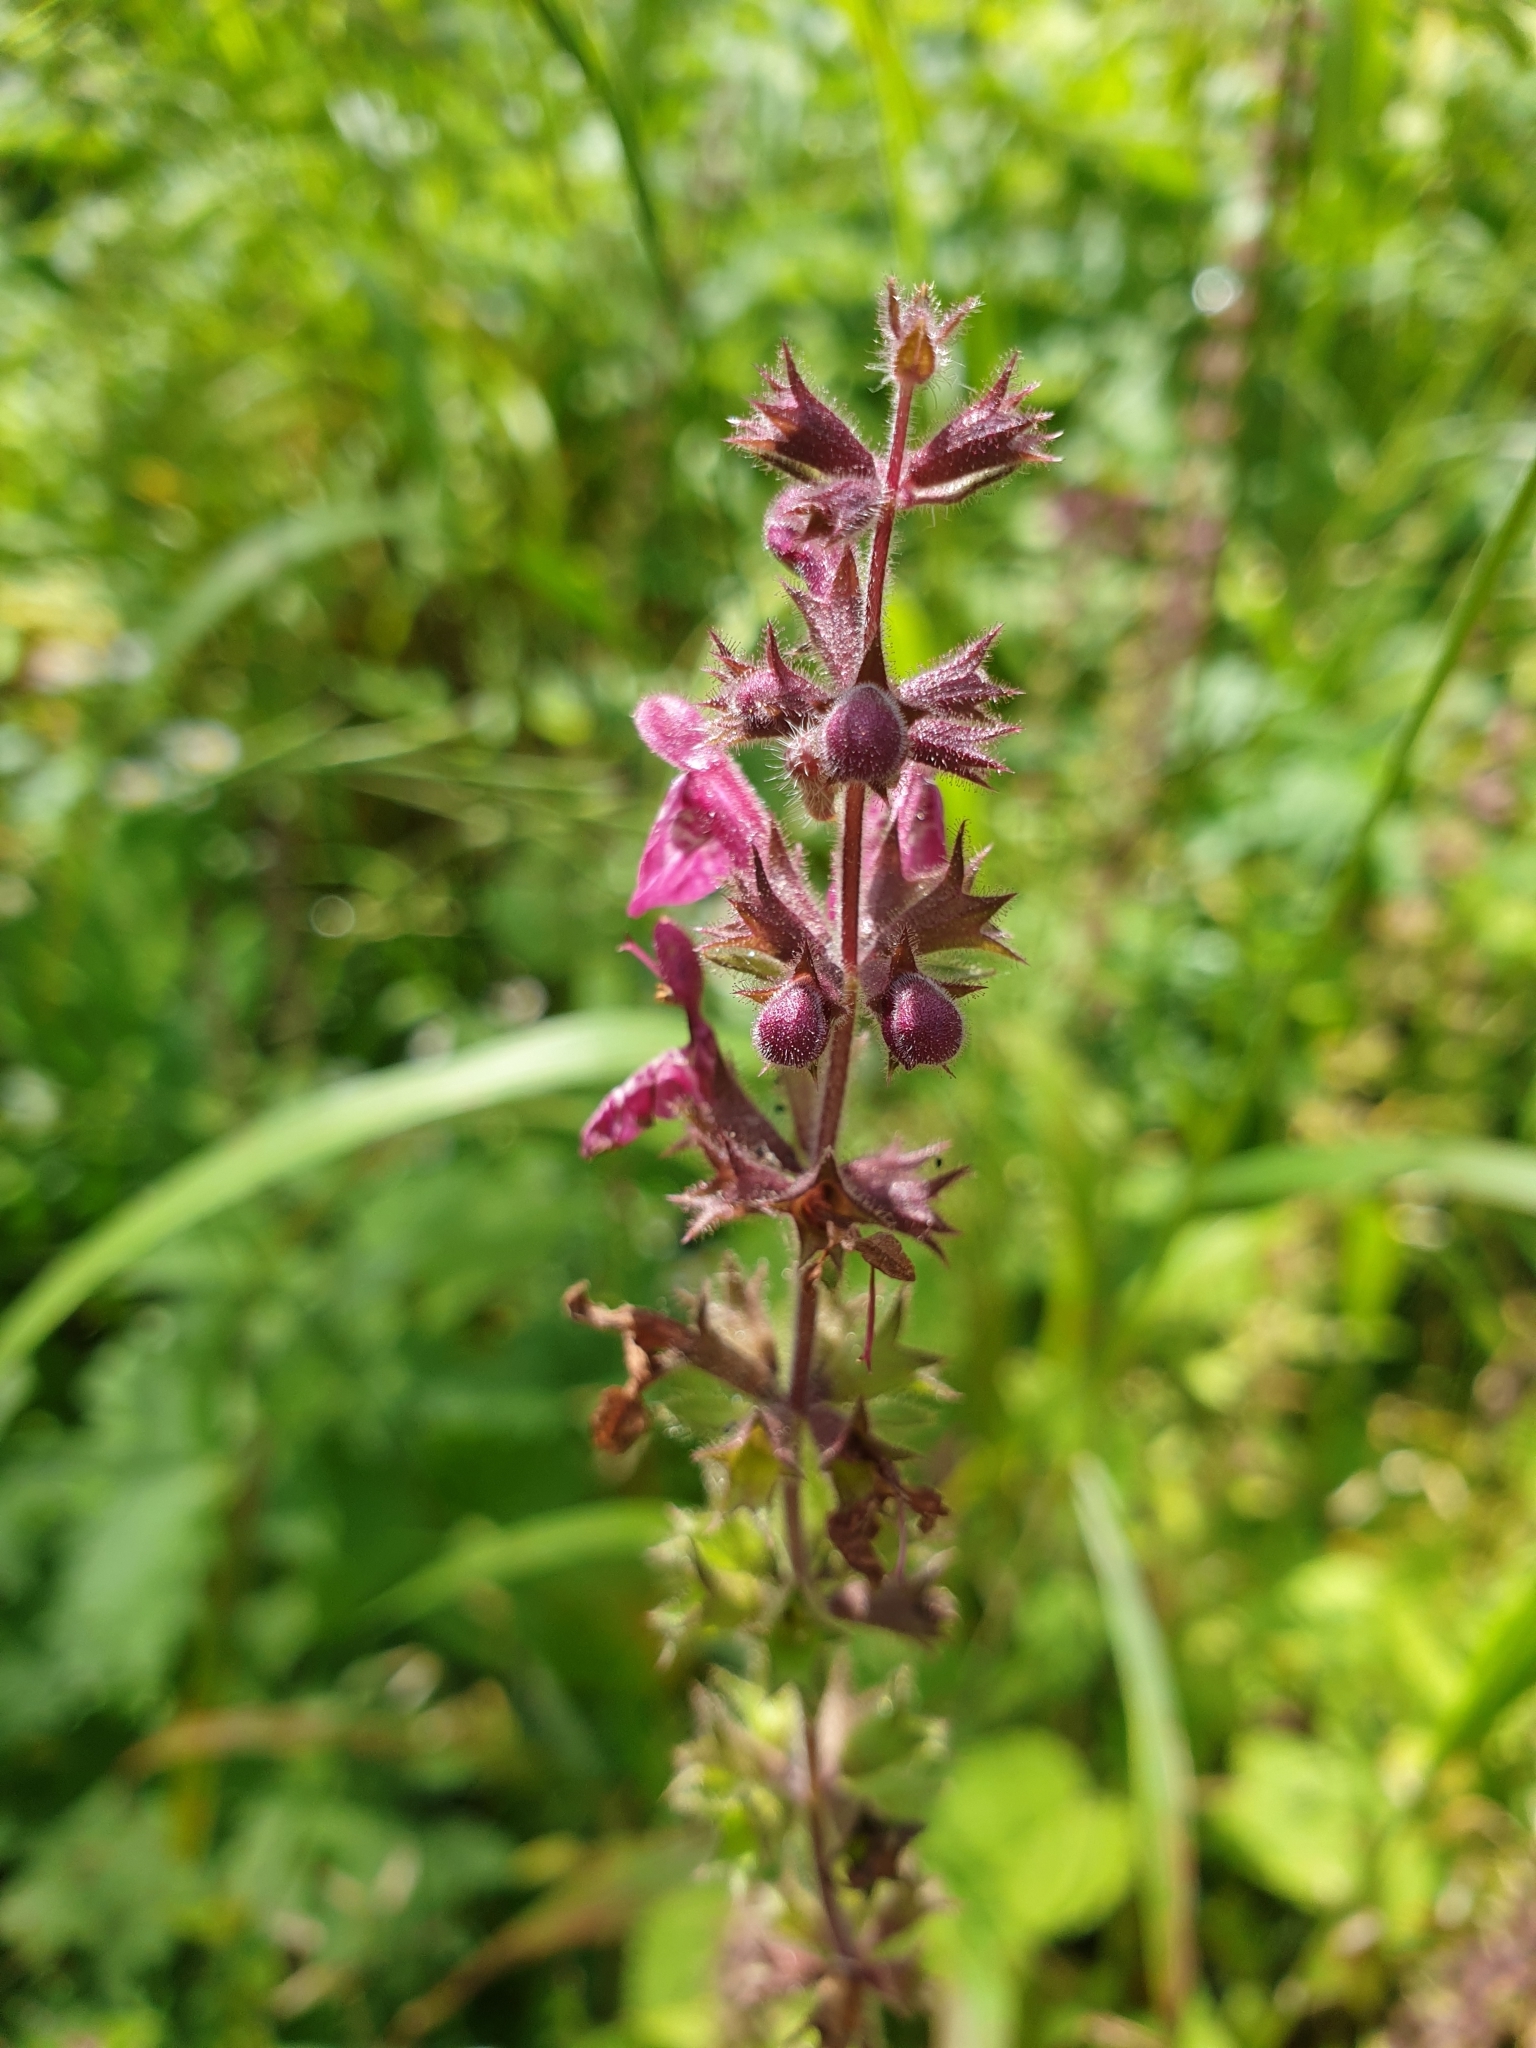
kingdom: Plantae
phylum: Tracheophyta
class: Magnoliopsida
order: Lamiales
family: Lamiaceae
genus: Stachys
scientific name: Stachys sylvatica
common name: Hedge woundwort
